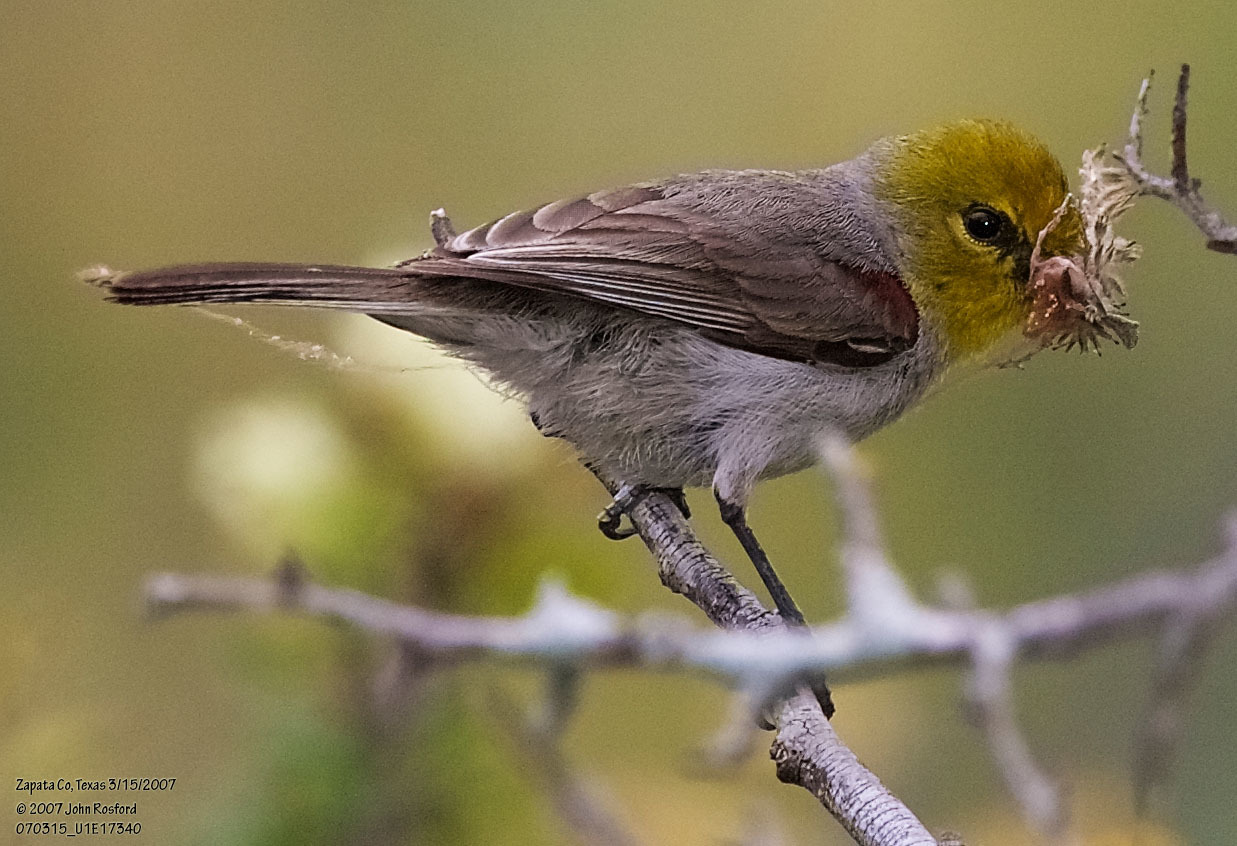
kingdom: Animalia
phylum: Chordata
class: Aves
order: Passeriformes
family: Remizidae
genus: Auriparus
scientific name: Auriparus flaviceps
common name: Verdin
